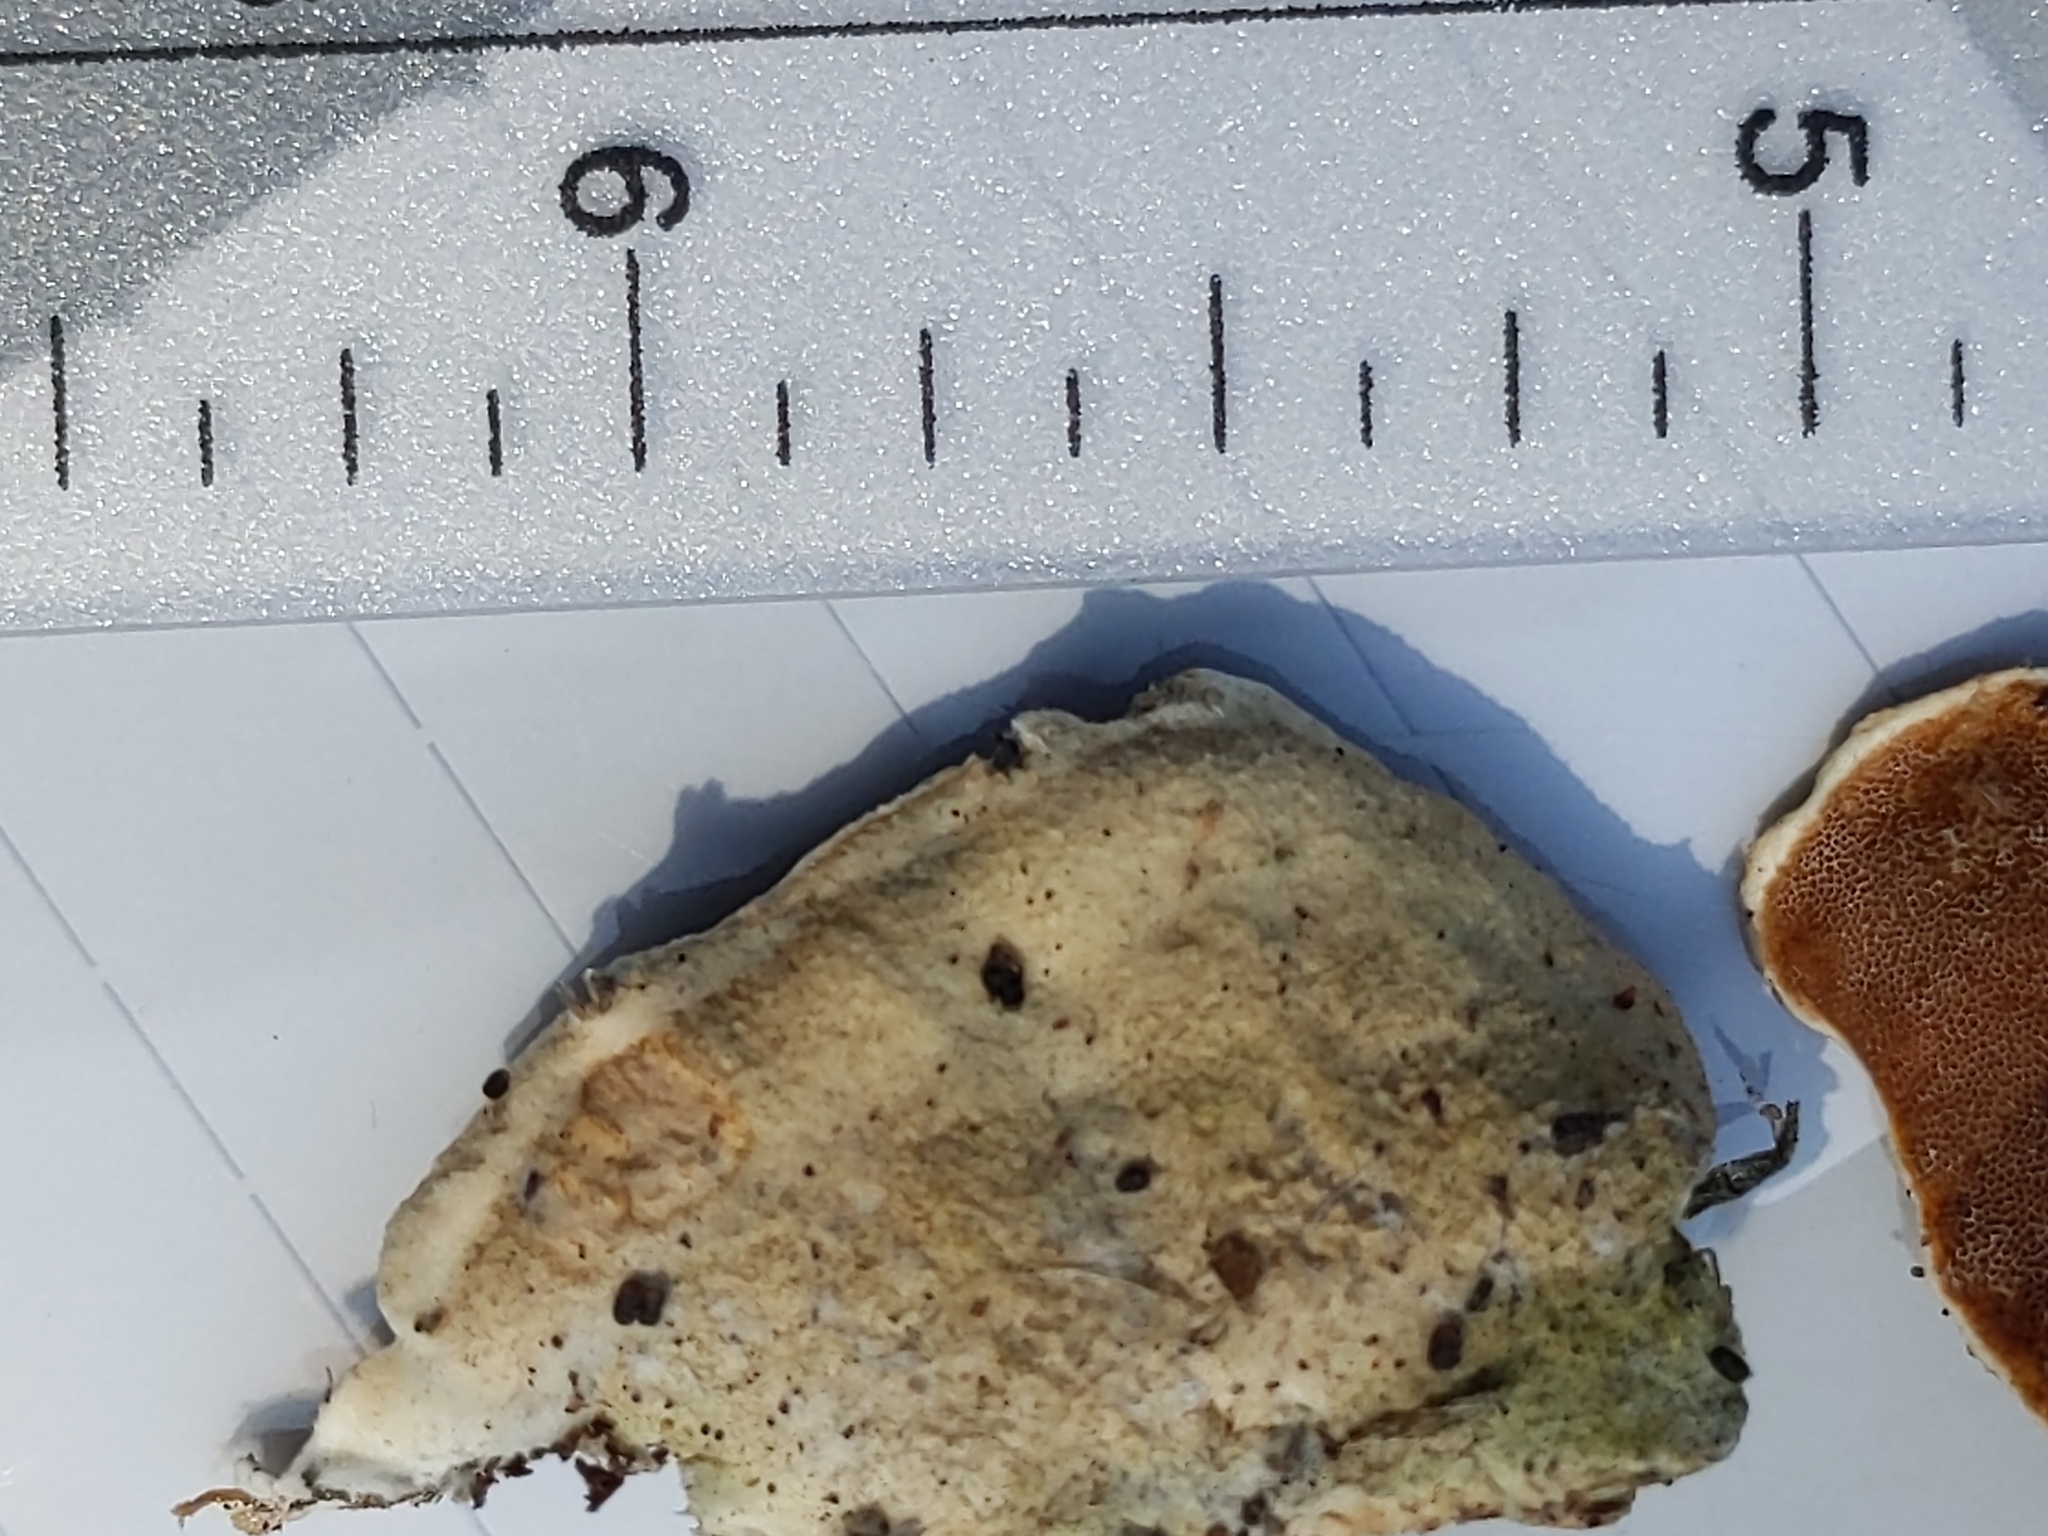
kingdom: Fungi
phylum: Basidiomycota
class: Agaricomycetes
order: Polyporales
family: Irpicaceae
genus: Vitreoporus
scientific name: Vitreoporus dichrous
